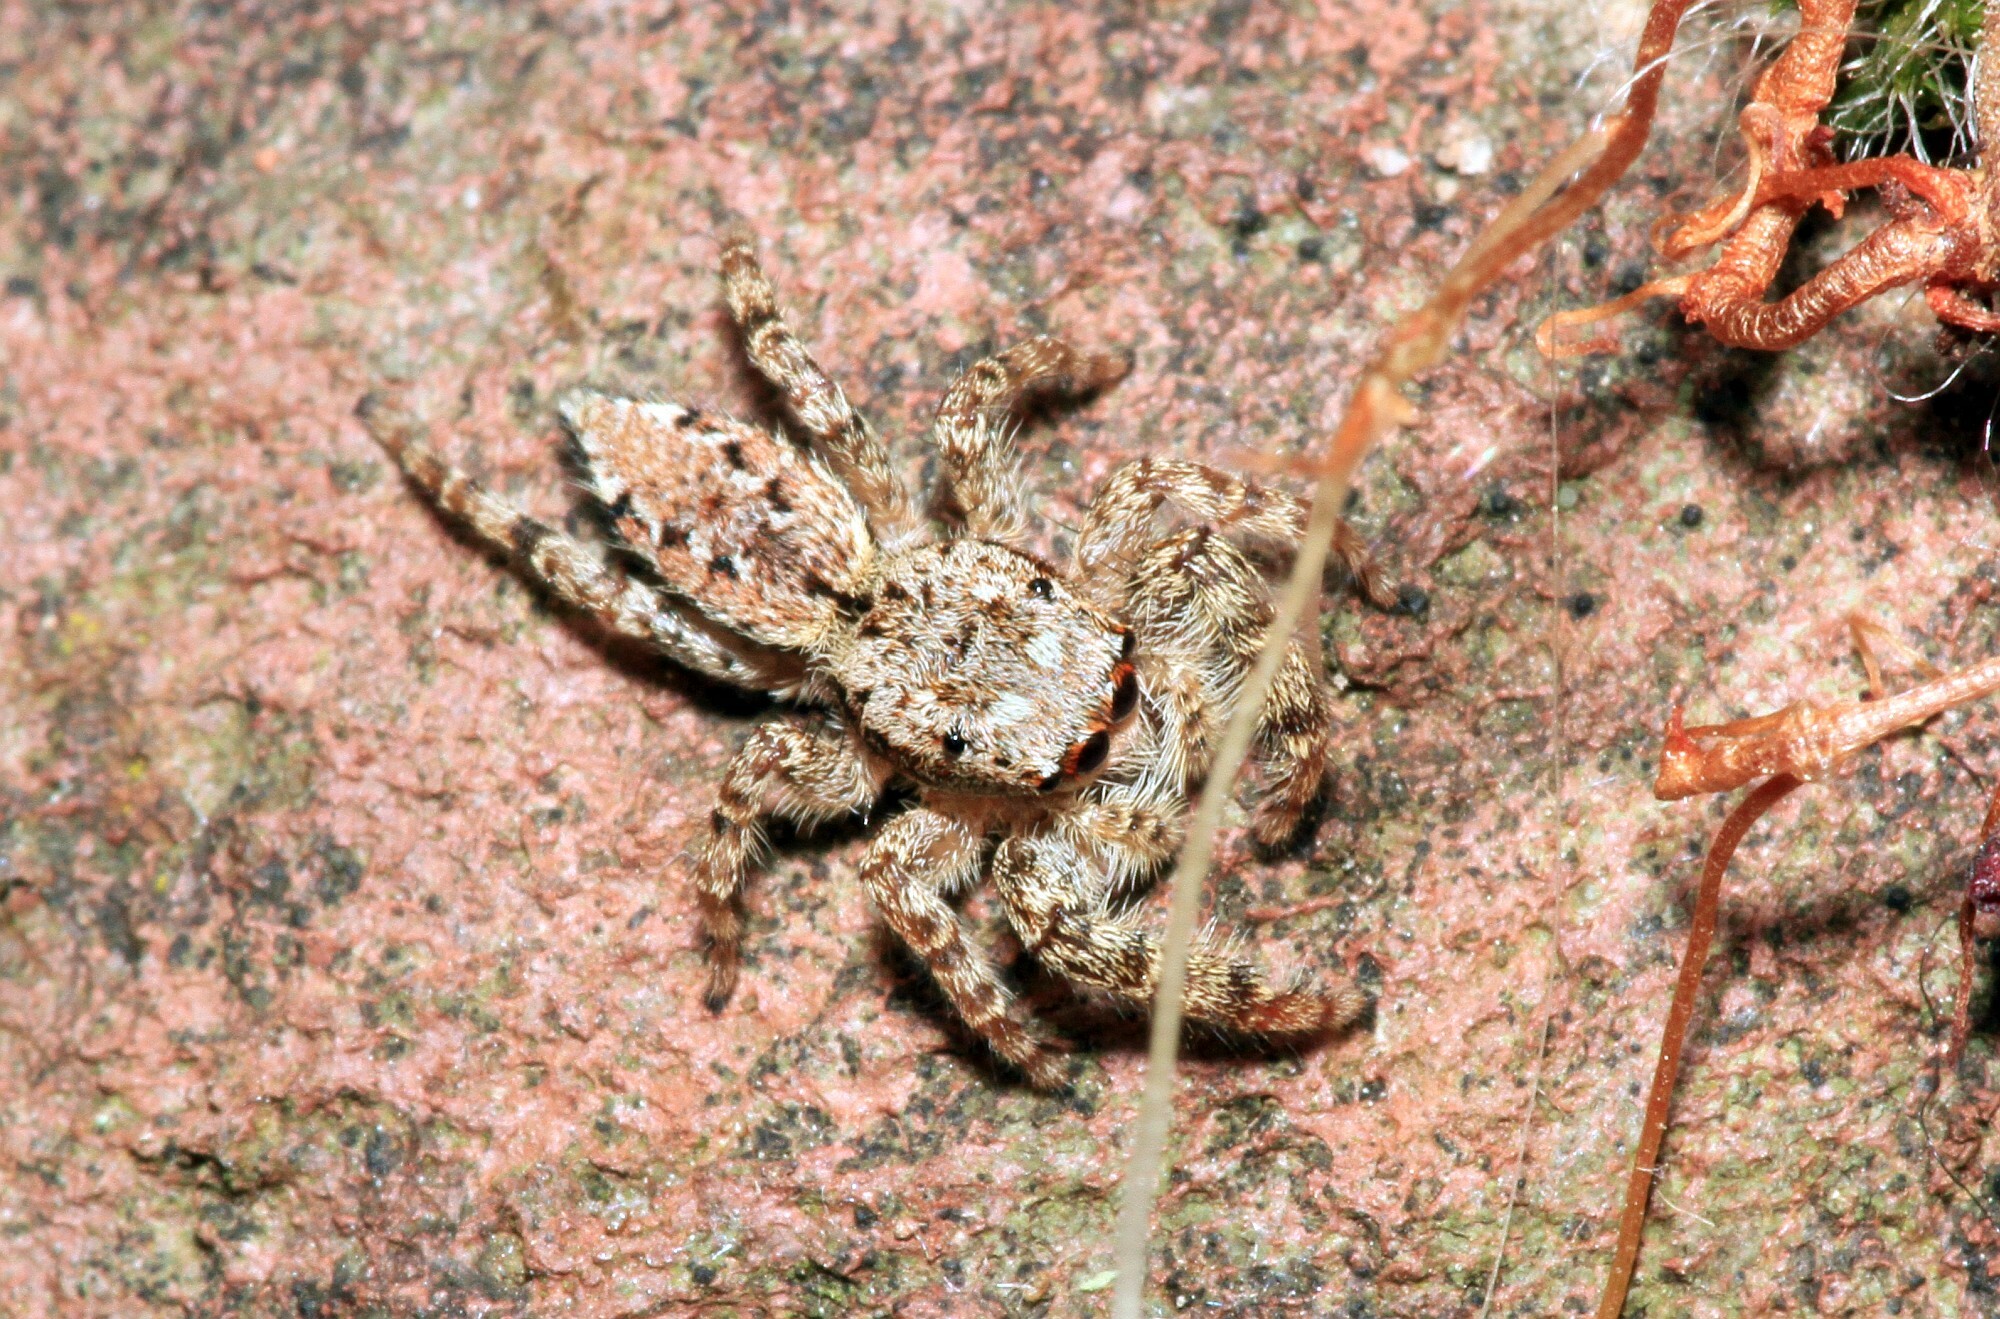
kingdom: Animalia
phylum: Arthropoda
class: Arachnida
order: Araneae
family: Salticidae
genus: Marpissa
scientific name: Marpissa muscosa
